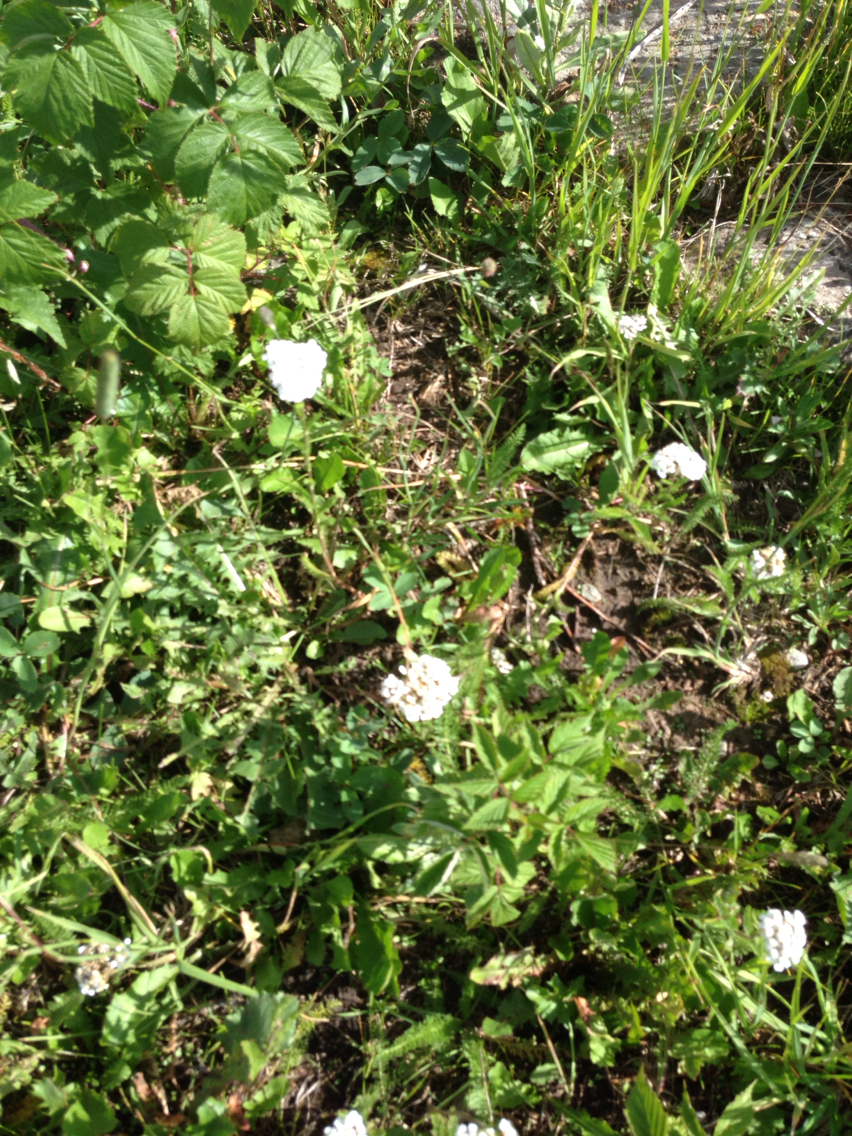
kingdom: Plantae
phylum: Tracheophyta
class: Magnoliopsida
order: Asterales
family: Asteraceae
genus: Achillea
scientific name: Achillea millefolium
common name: Yarrow
